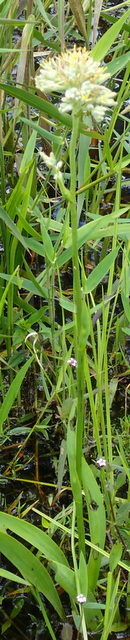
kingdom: Plantae
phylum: Tracheophyta
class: Liliopsida
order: Commelinales
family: Haemodoraceae
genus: Lachnanthes
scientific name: Lachnanthes caroliana
